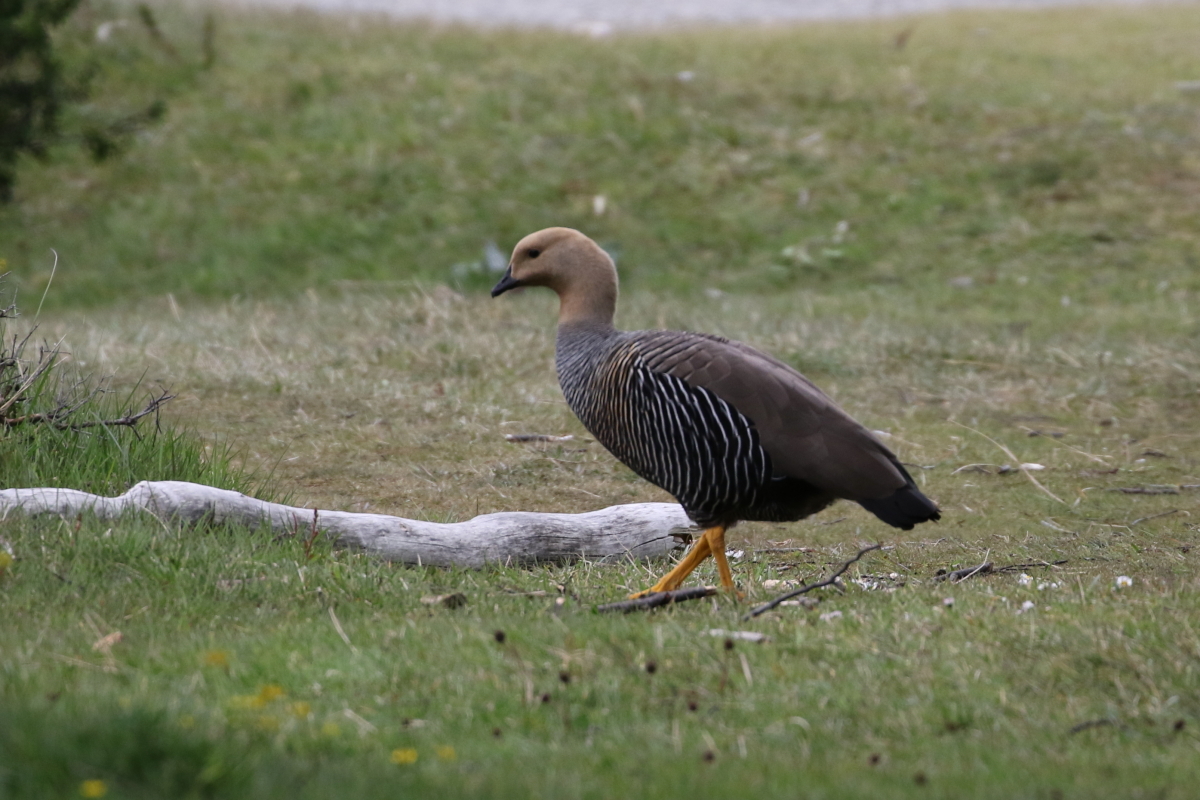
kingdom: Animalia
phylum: Chordata
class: Aves
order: Anseriformes
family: Anatidae
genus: Chloephaga
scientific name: Chloephaga picta
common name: Upland goose
